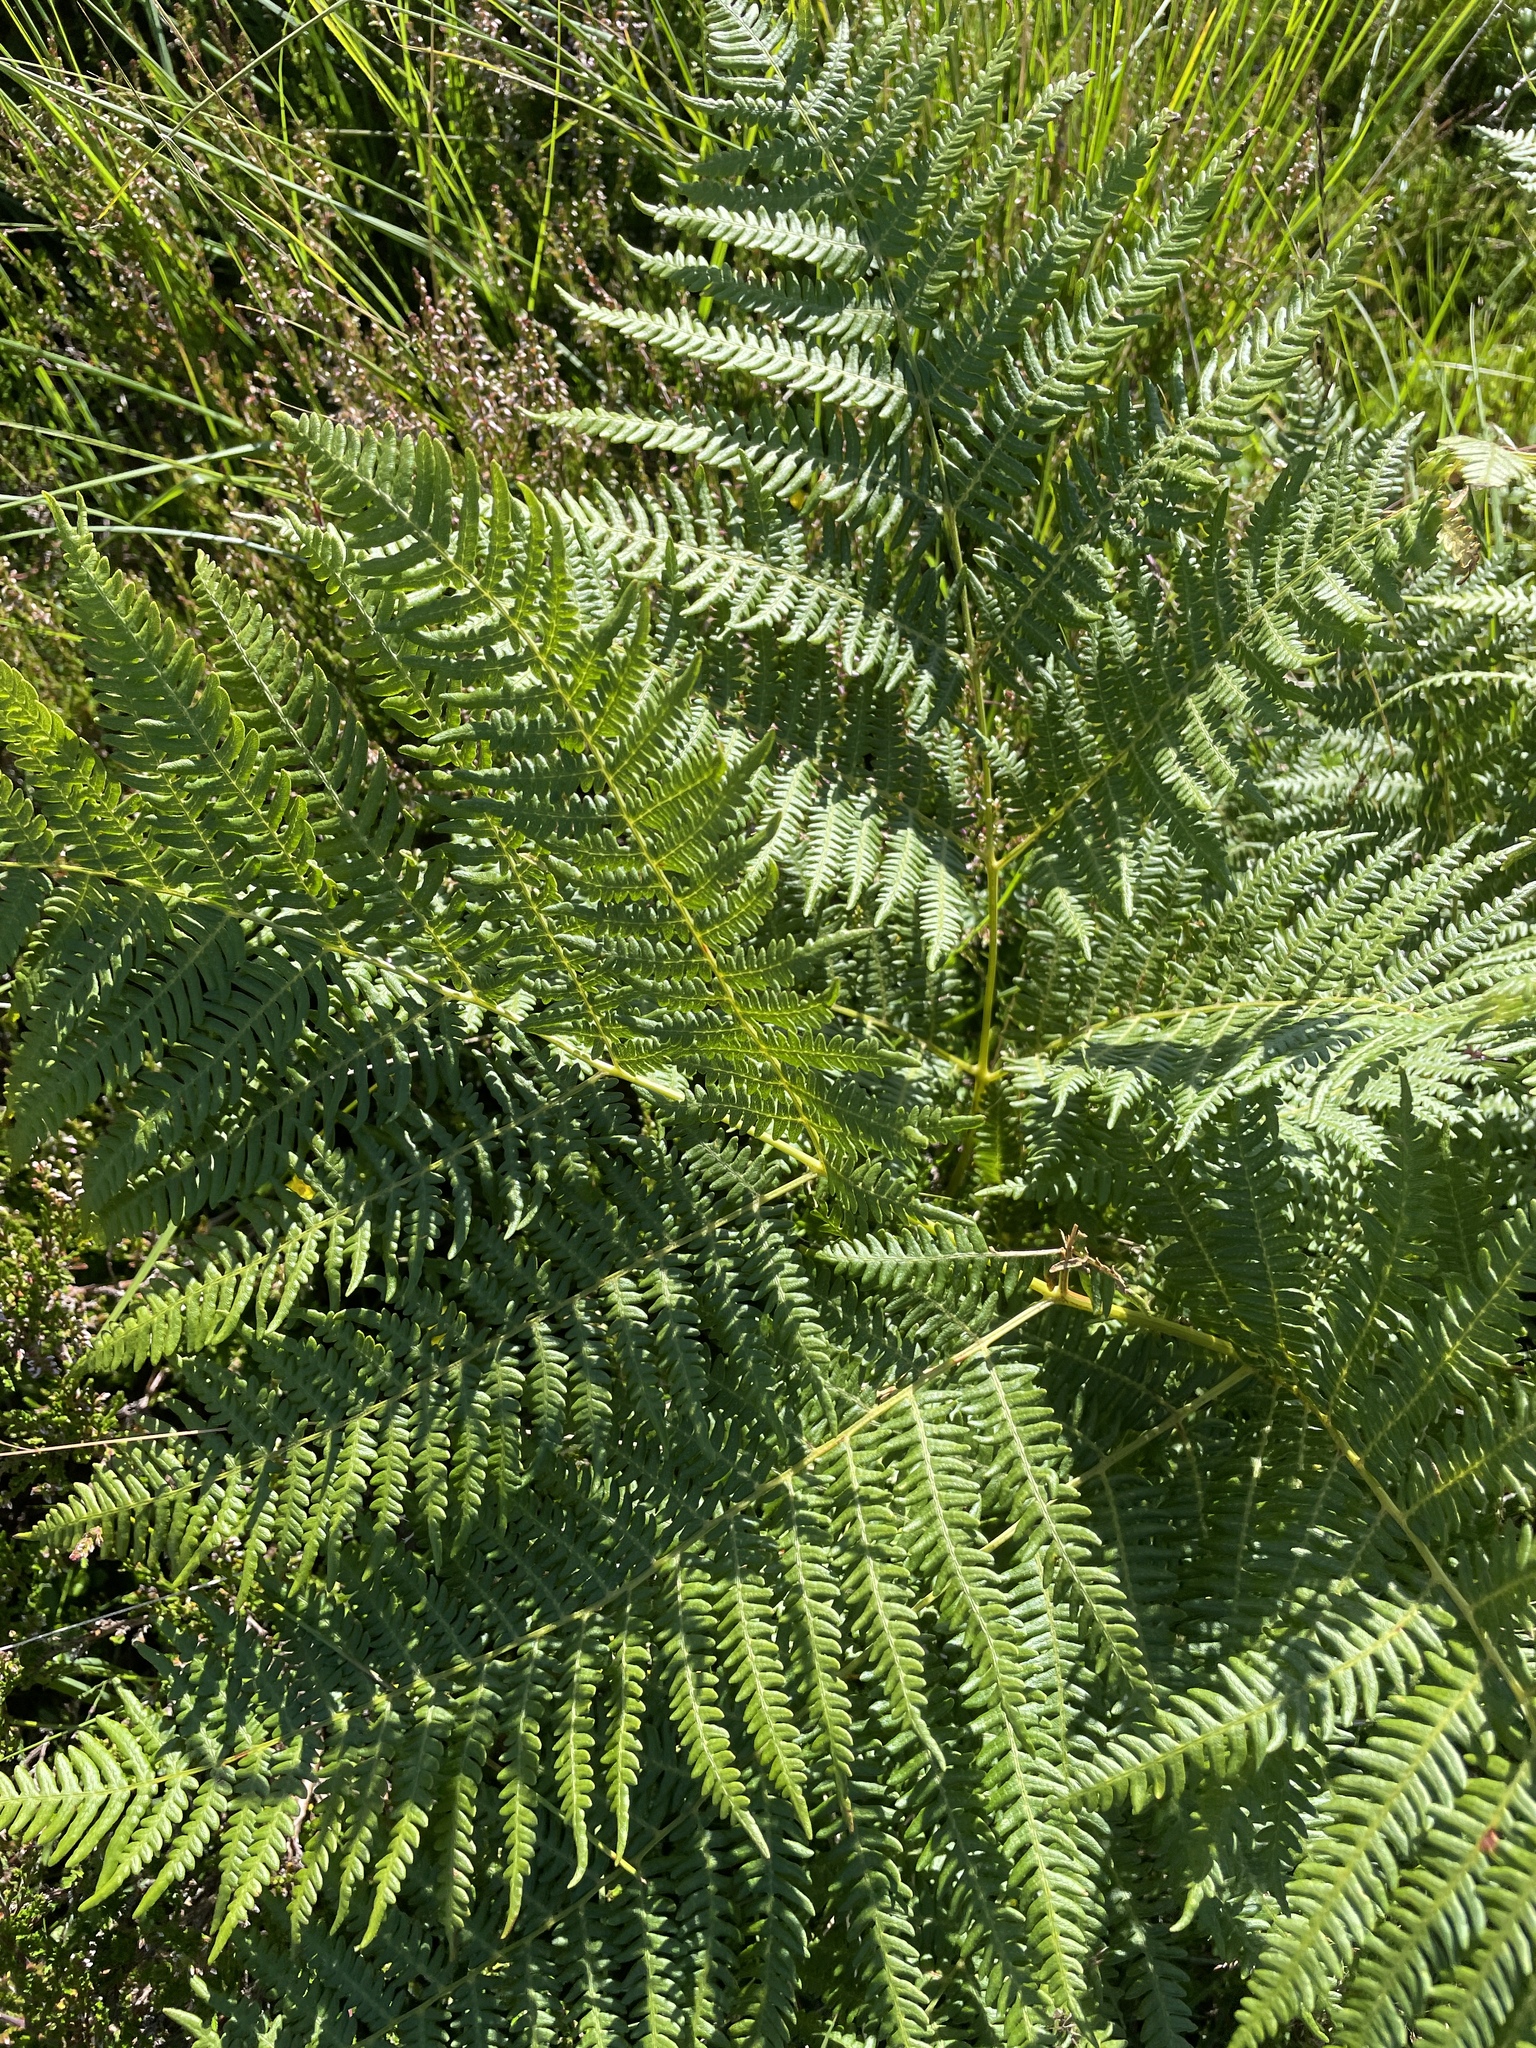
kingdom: Plantae
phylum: Tracheophyta
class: Polypodiopsida
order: Polypodiales
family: Dennstaedtiaceae
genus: Pteridium
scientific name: Pteridium aquilinum
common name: Bracken
